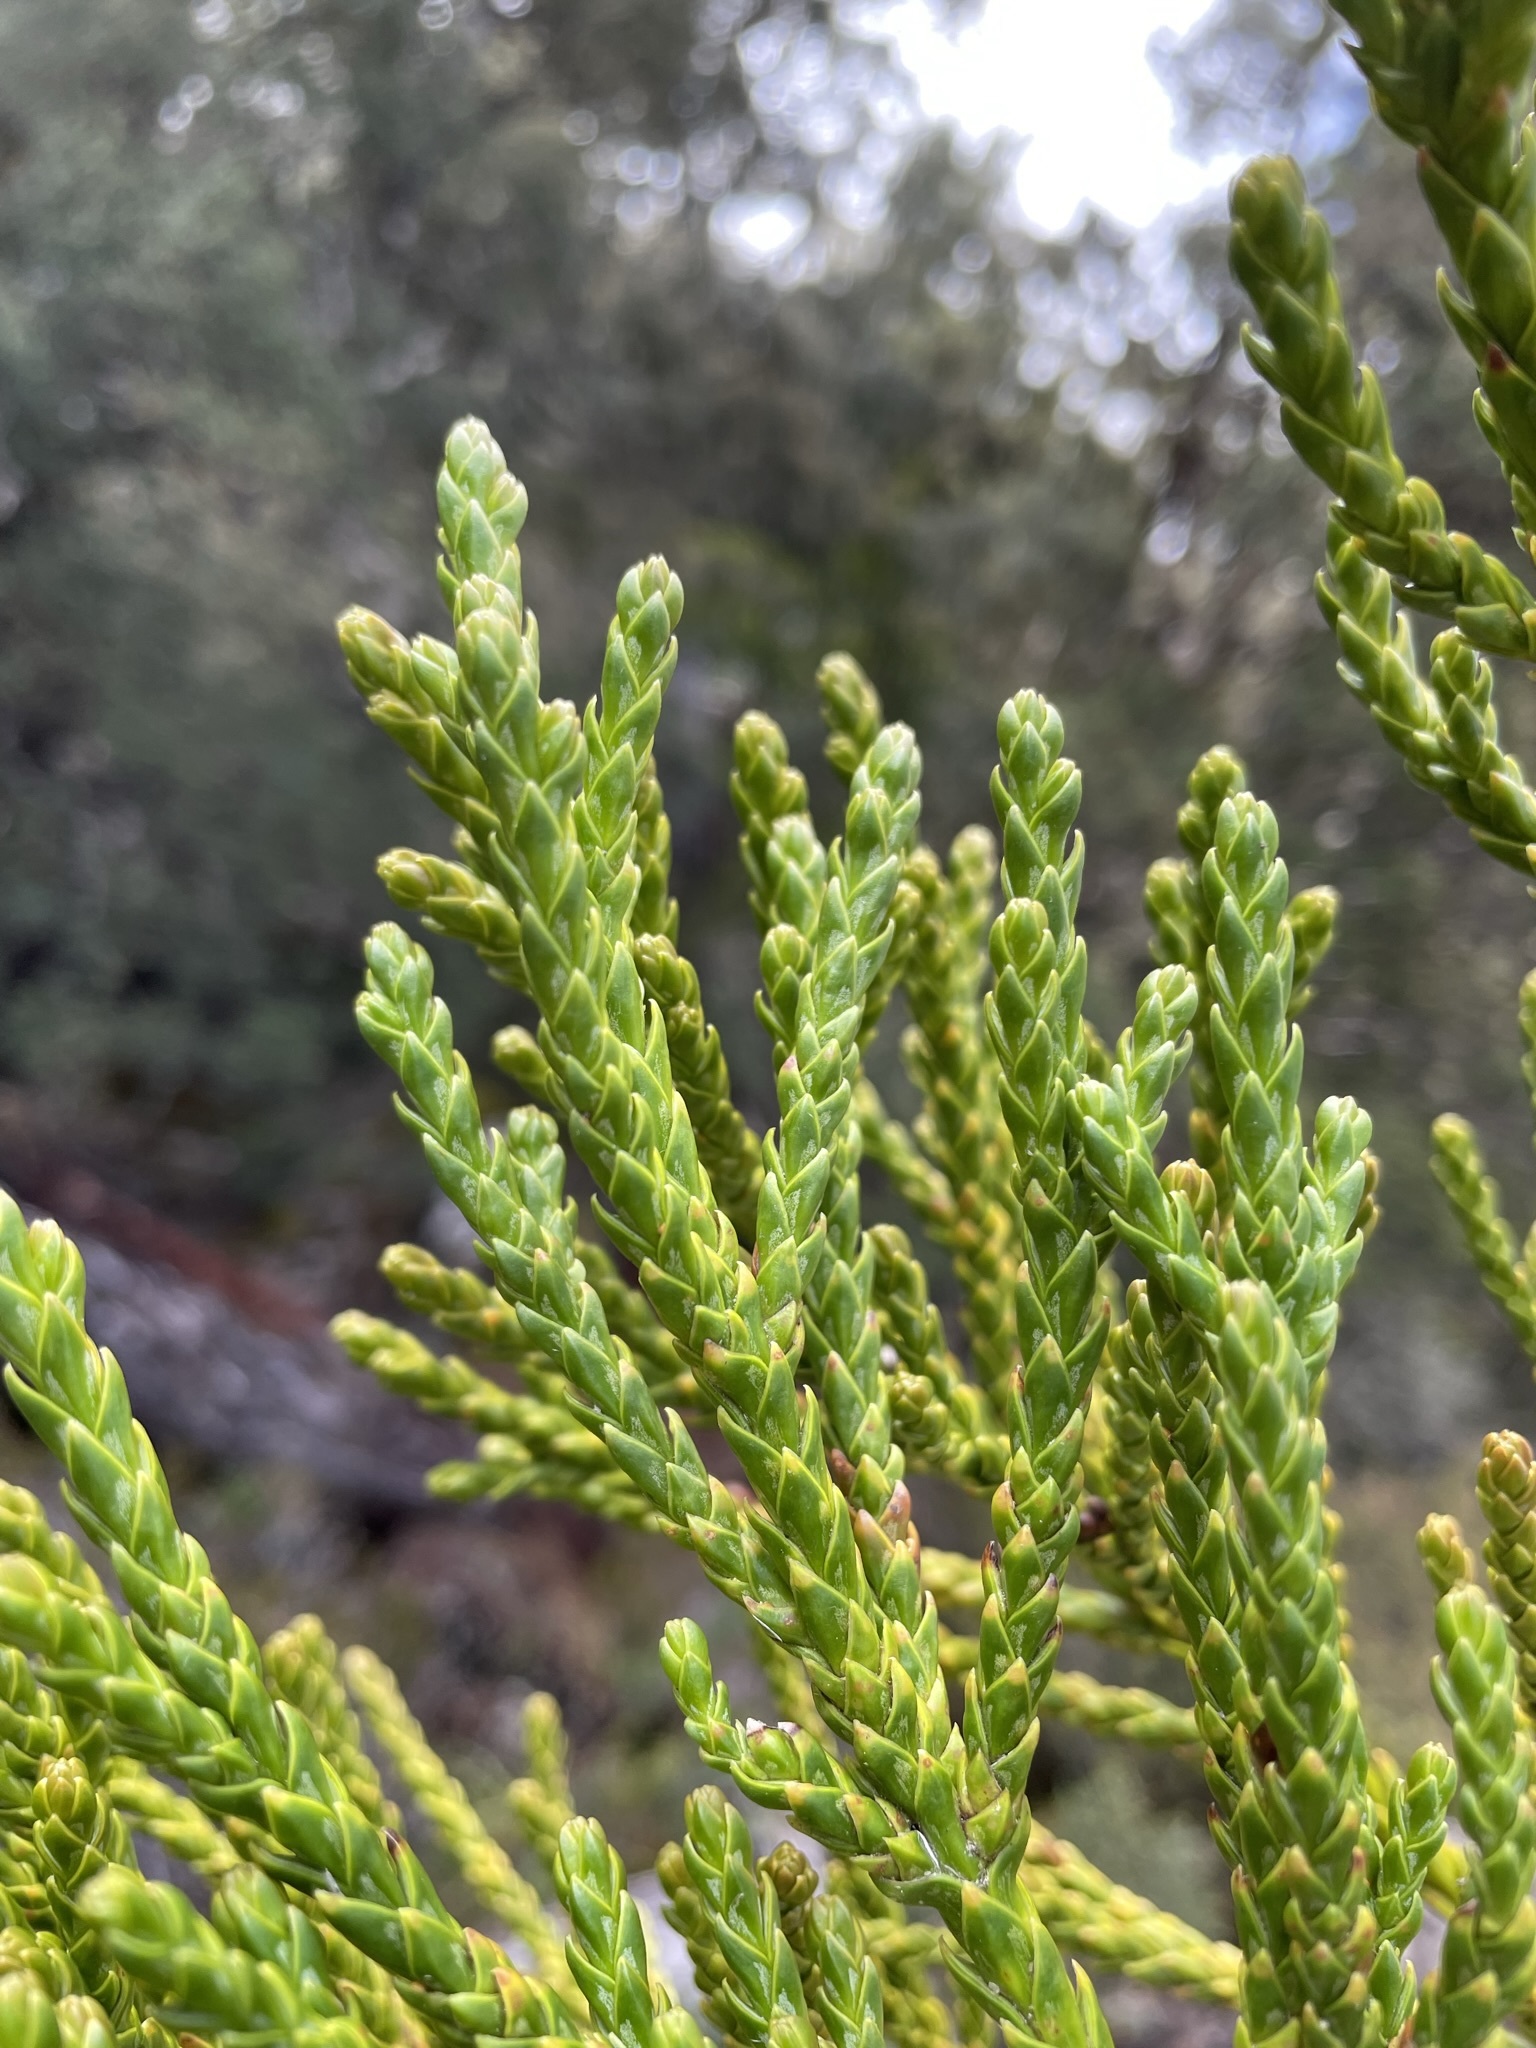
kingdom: Plantae
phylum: Tracheophyta
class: Pinopsida
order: Pinales
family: Cupressaceae
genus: Athrotaxis
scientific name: Athrotaxis laxifolia
